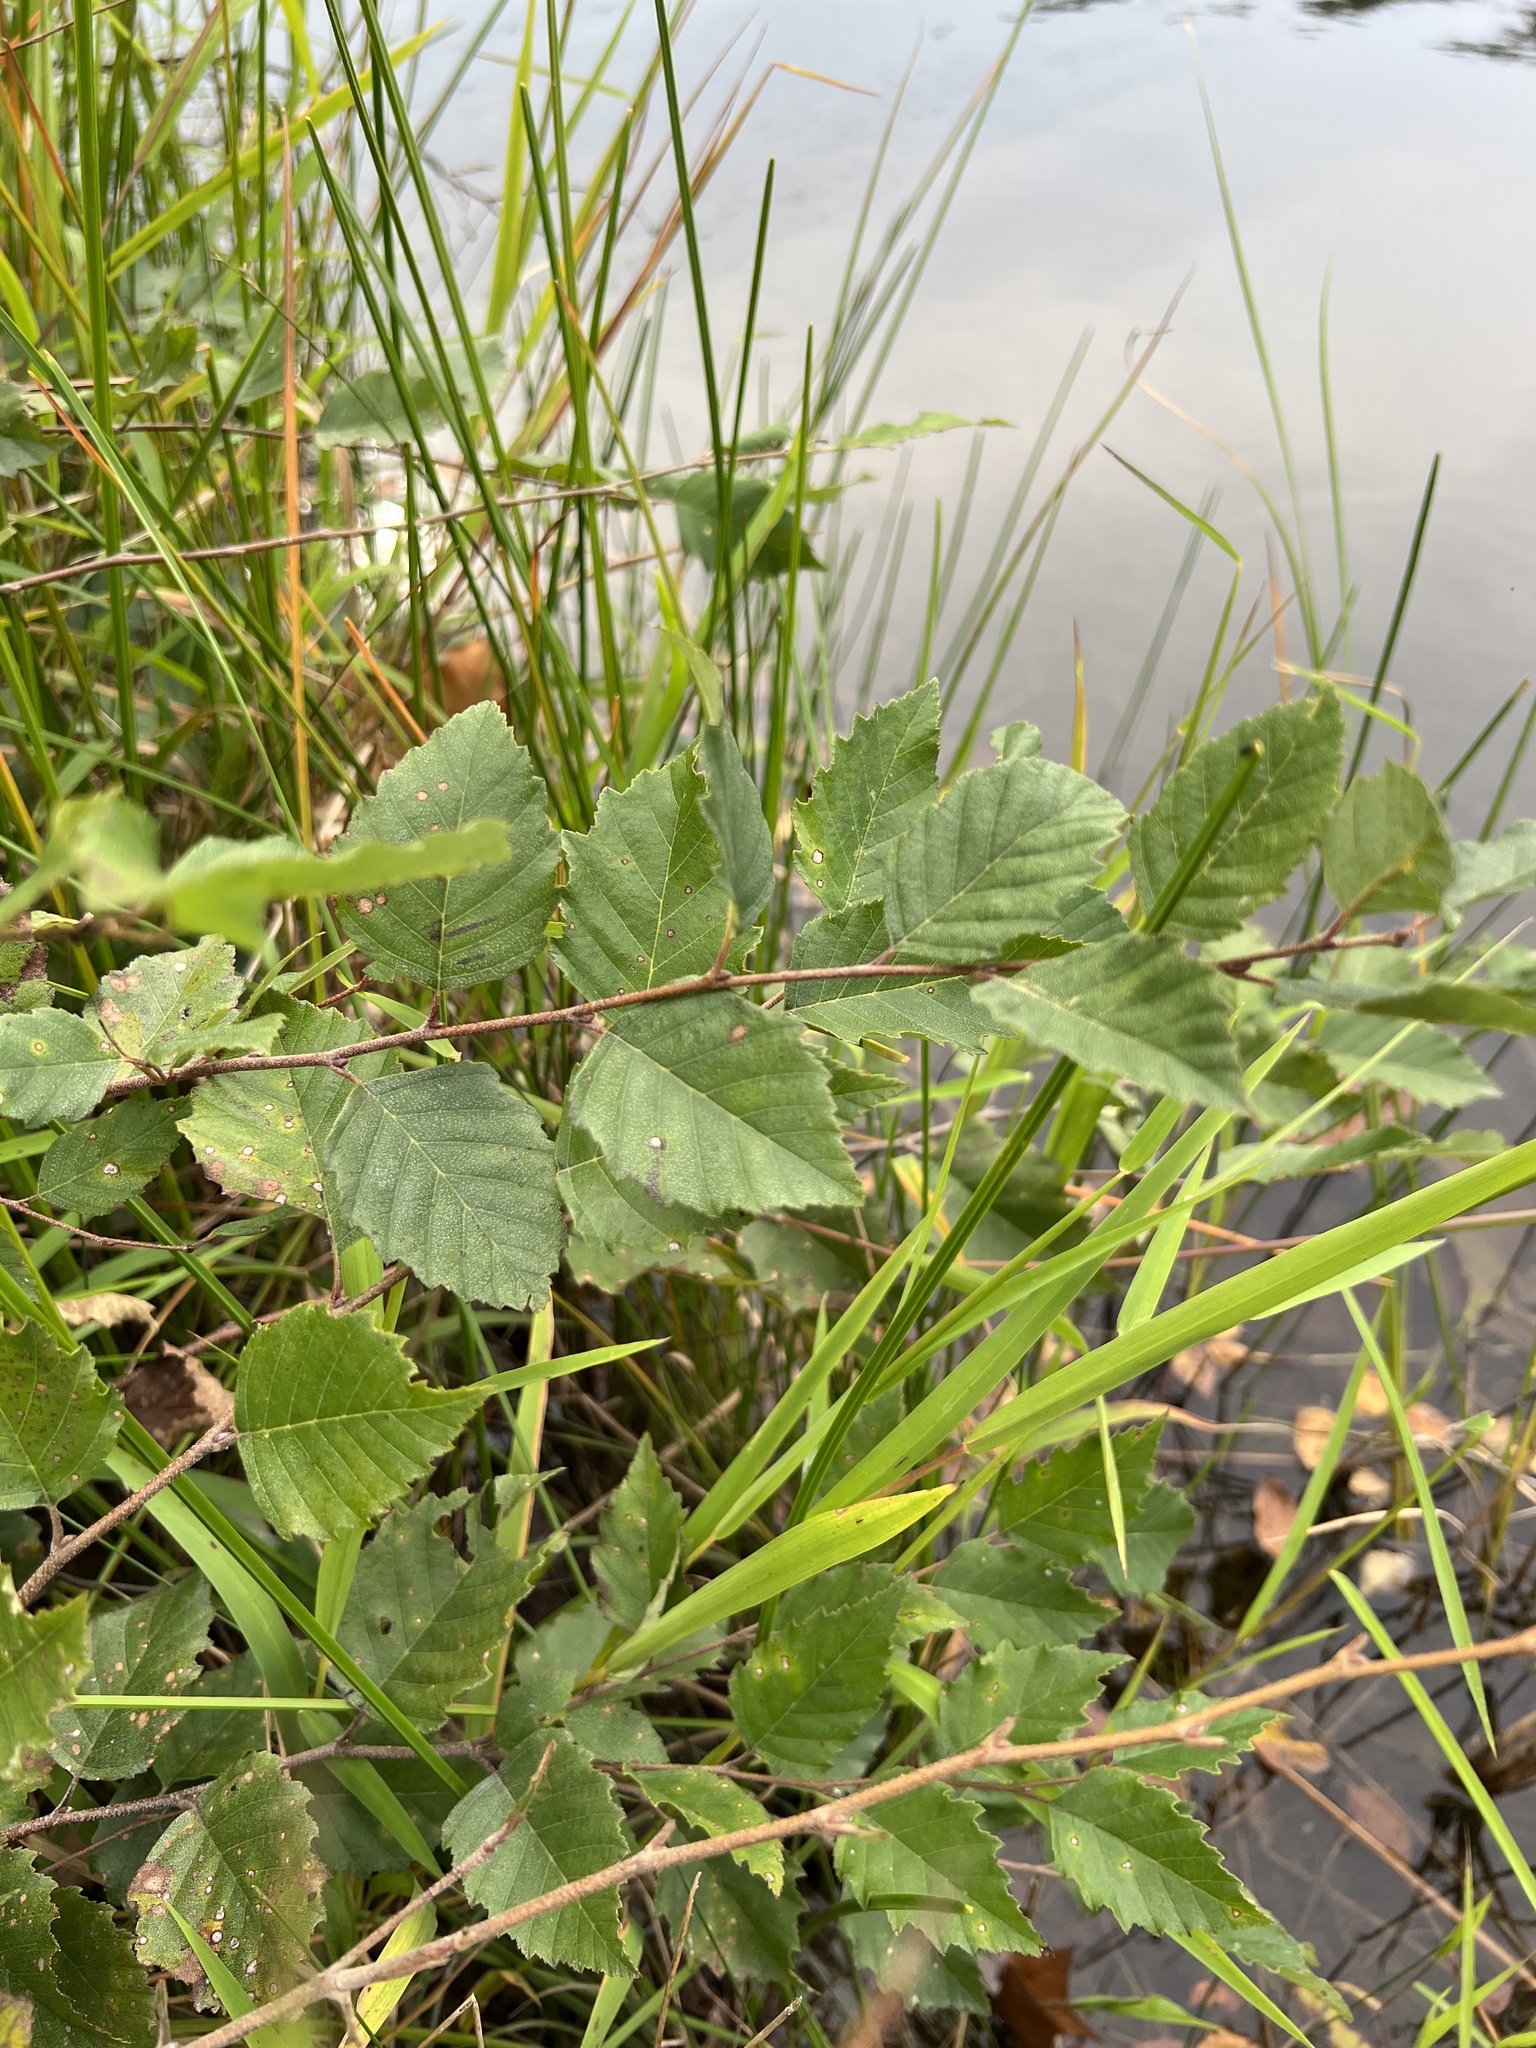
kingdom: Plantae
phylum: Tracheophyta
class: Magnoliopsida
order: Fagales
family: Betulaceae
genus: Betula
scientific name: Betula nigra
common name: Black birch
